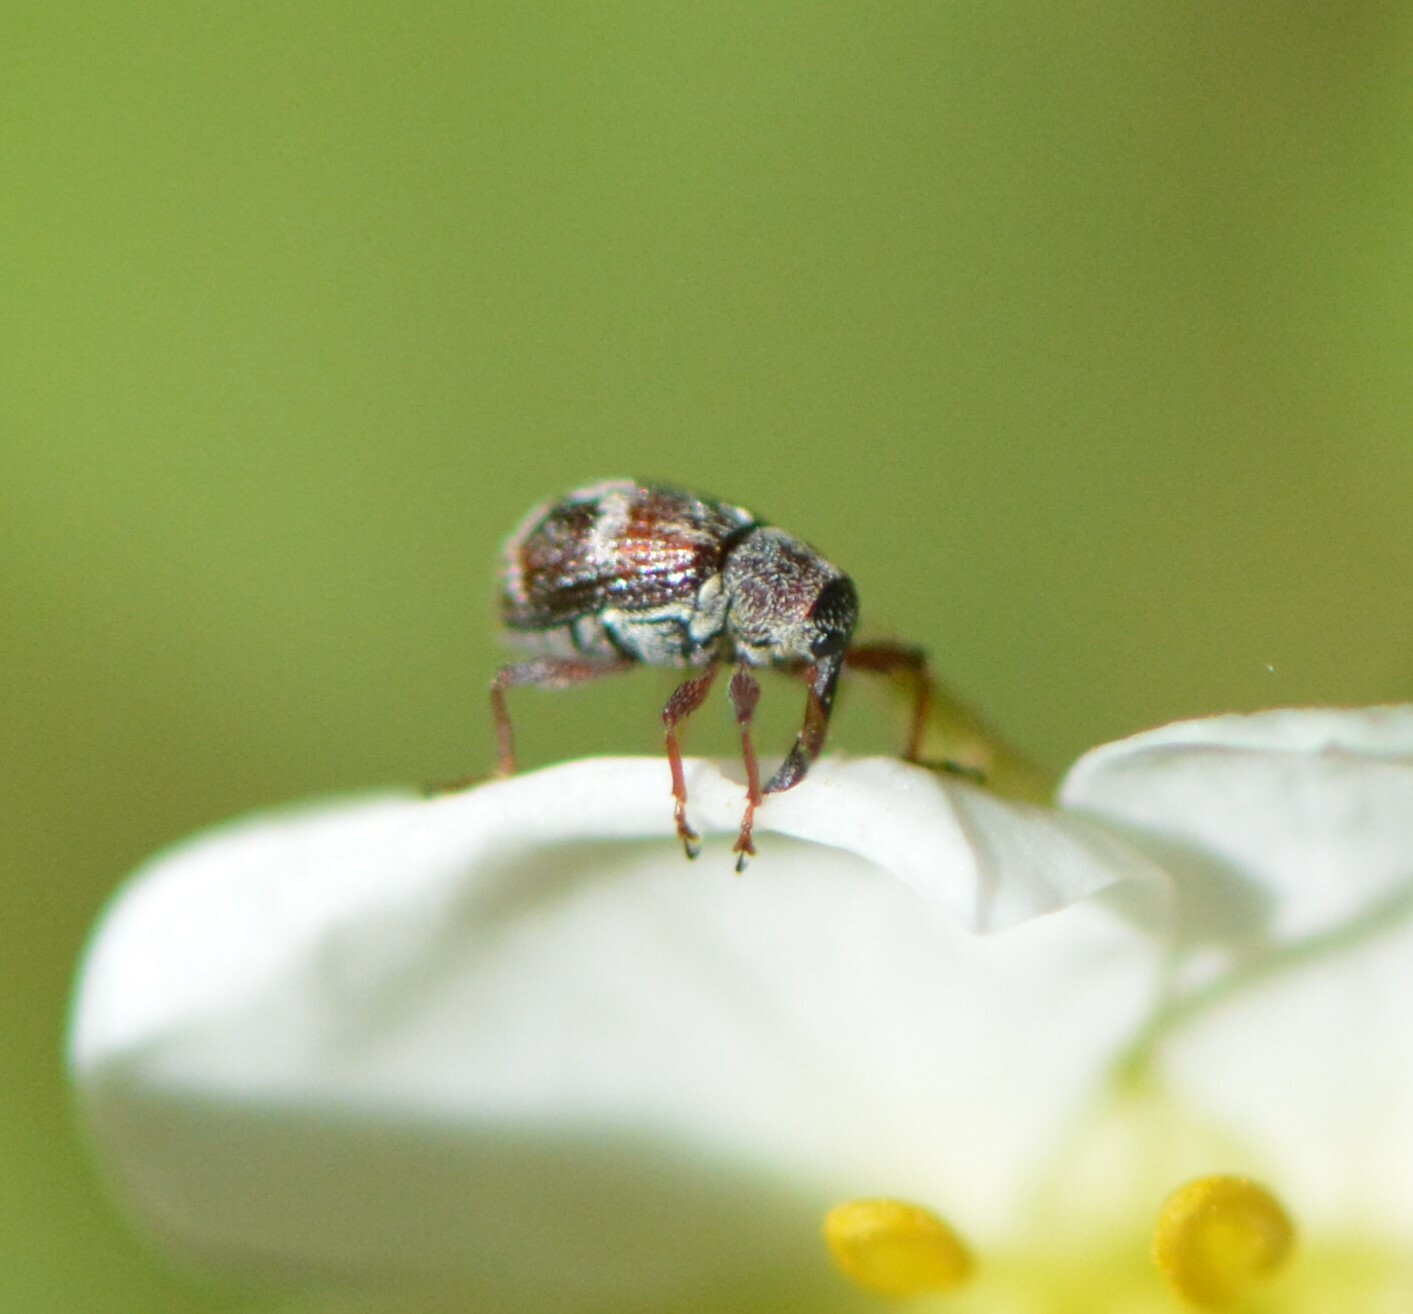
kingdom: Animalia
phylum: Arthropoda
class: Insecta
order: Coleoptera
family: Curculionidae
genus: Anthonomus
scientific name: Anthonomus signatus
